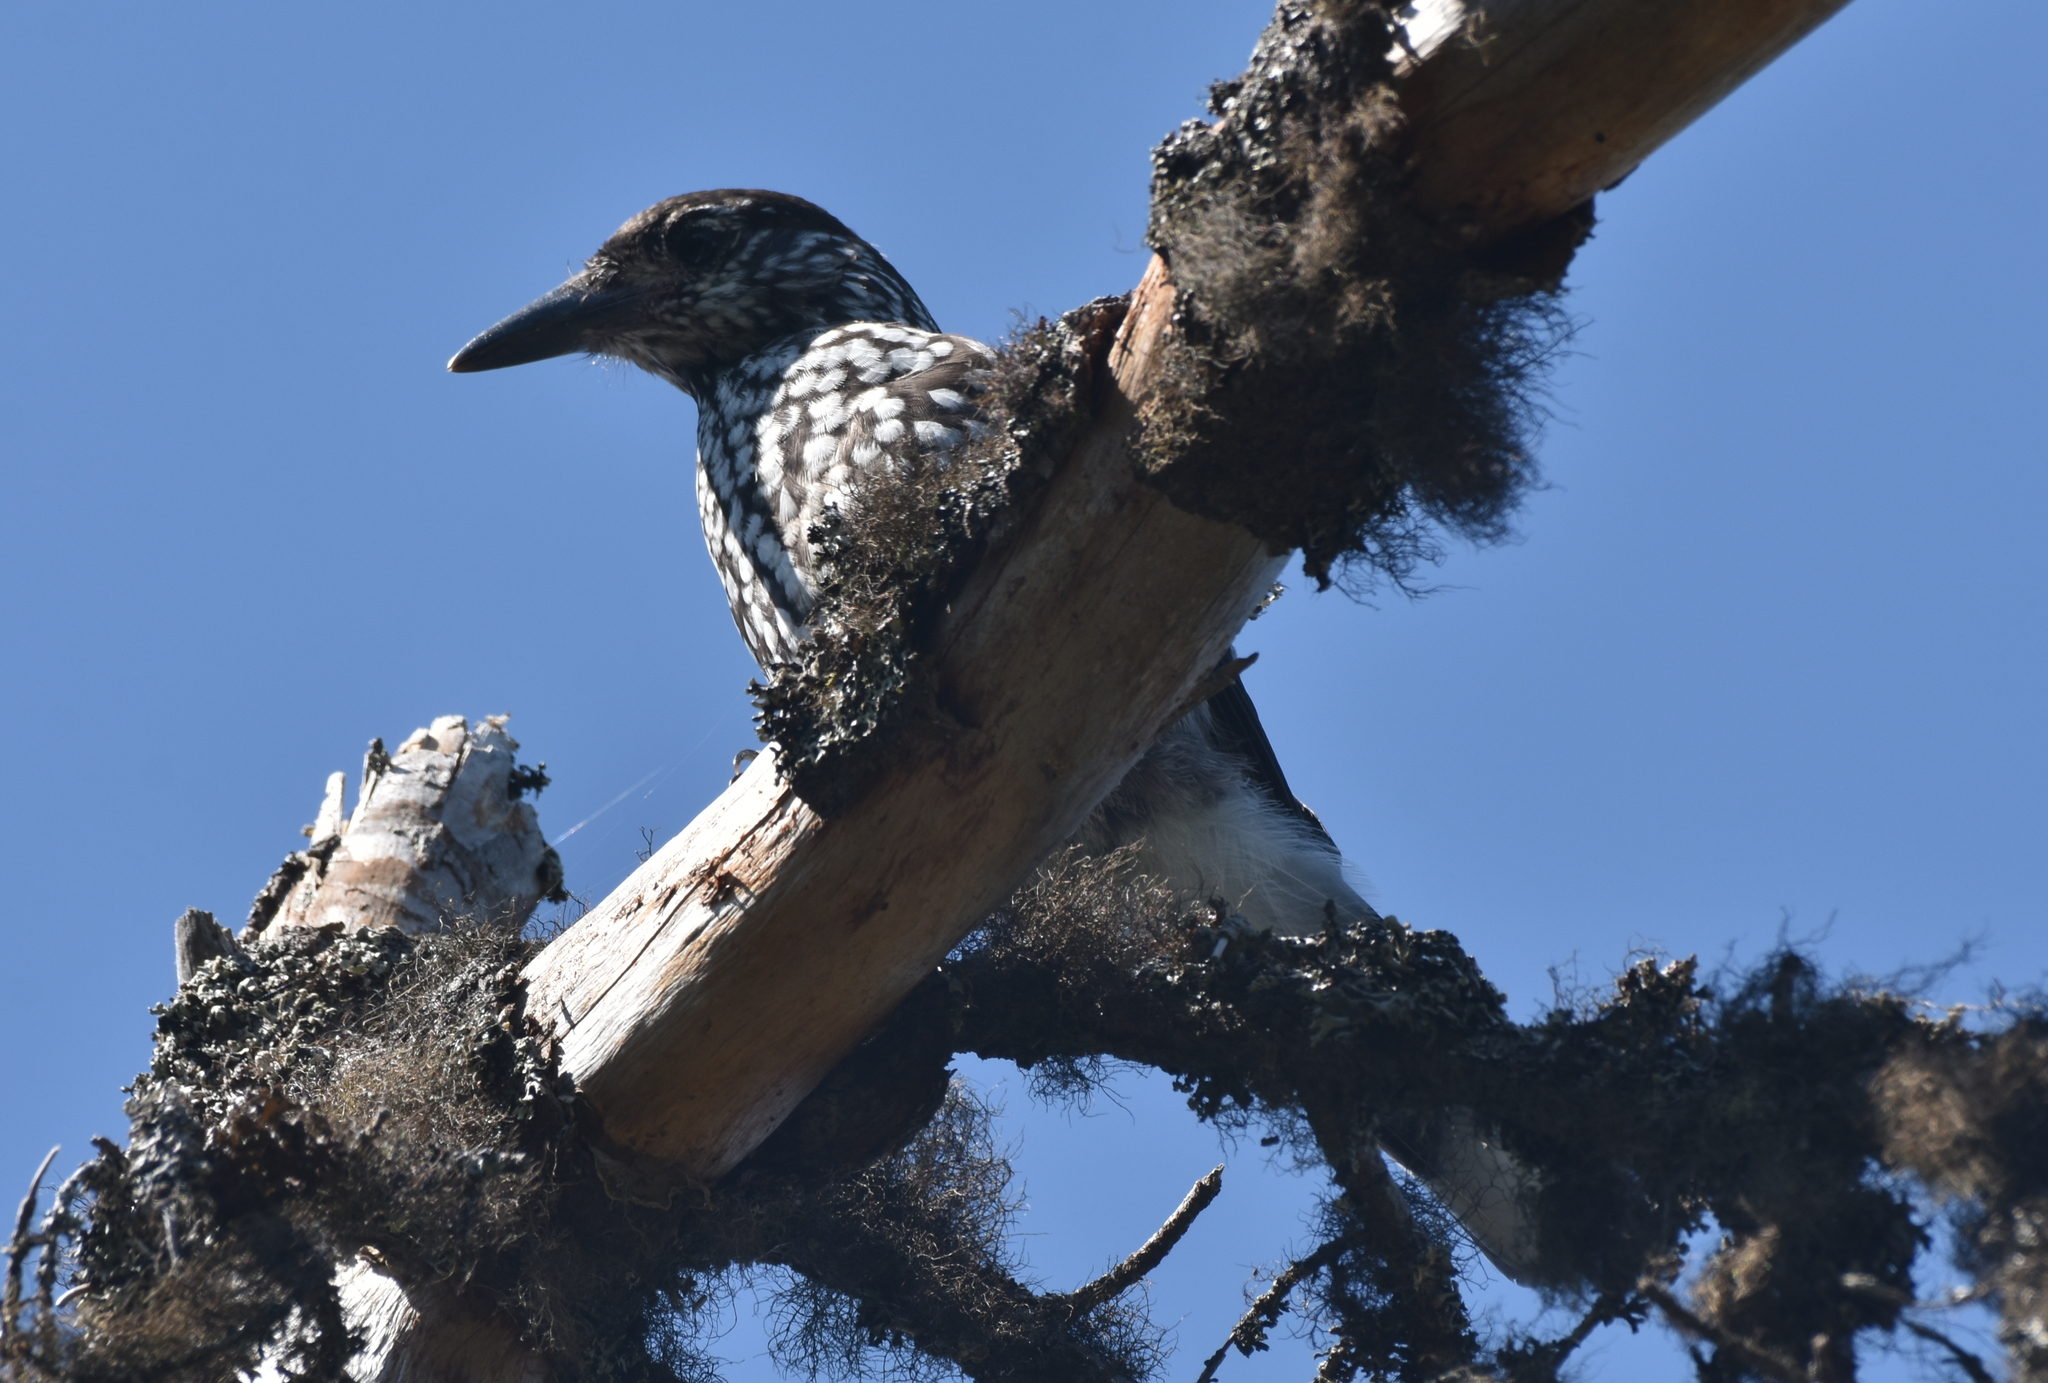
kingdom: Animalia
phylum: Chordata
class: Aves
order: Passeriformes
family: Corvidae
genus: Nucifraga
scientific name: Nucifraga caryocatactes
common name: Spotted nutcracker
